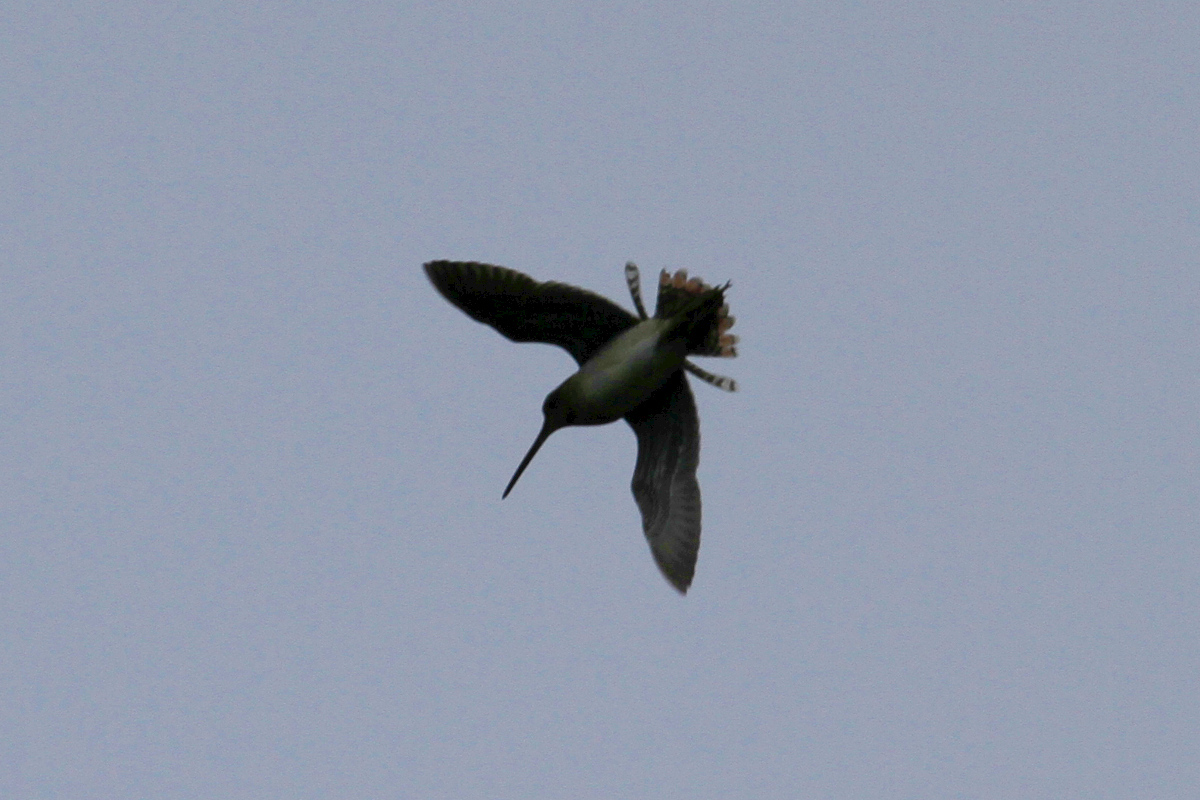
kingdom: Animalia
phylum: Chordata
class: Aves
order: Charadriiformes
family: Scolopacidae
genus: Gallinago
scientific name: Gallinago gallinago
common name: Common snipe
